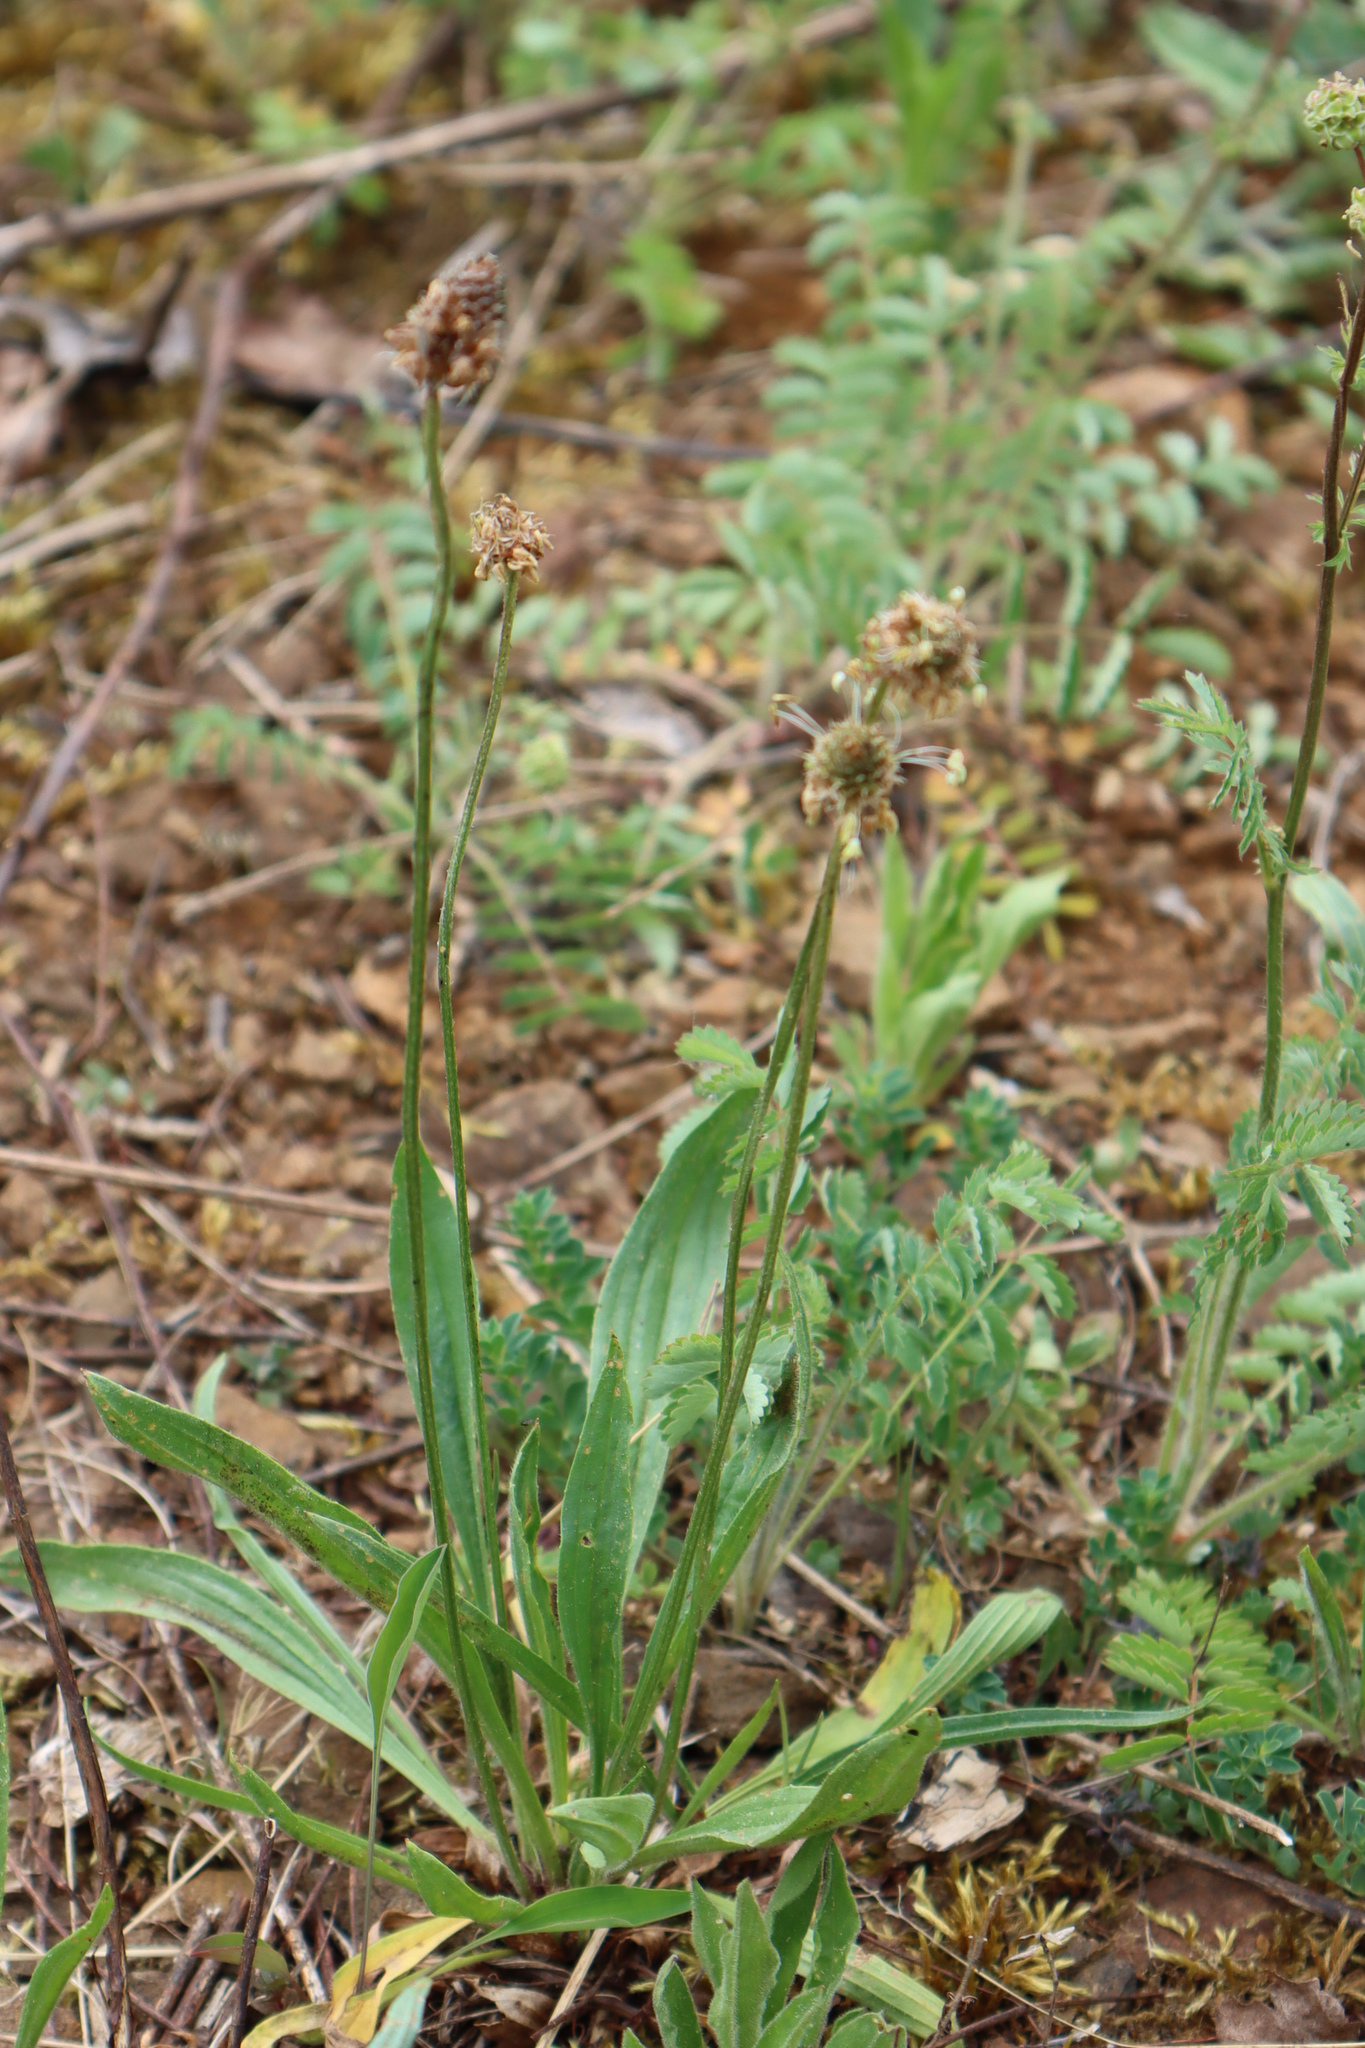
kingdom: Plantae
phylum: Tracheophyta
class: Magnoliopsida
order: Lamiales
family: Plantaginaceae
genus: Plantago
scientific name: Plantago lanceolata
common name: Ribwort plantain
